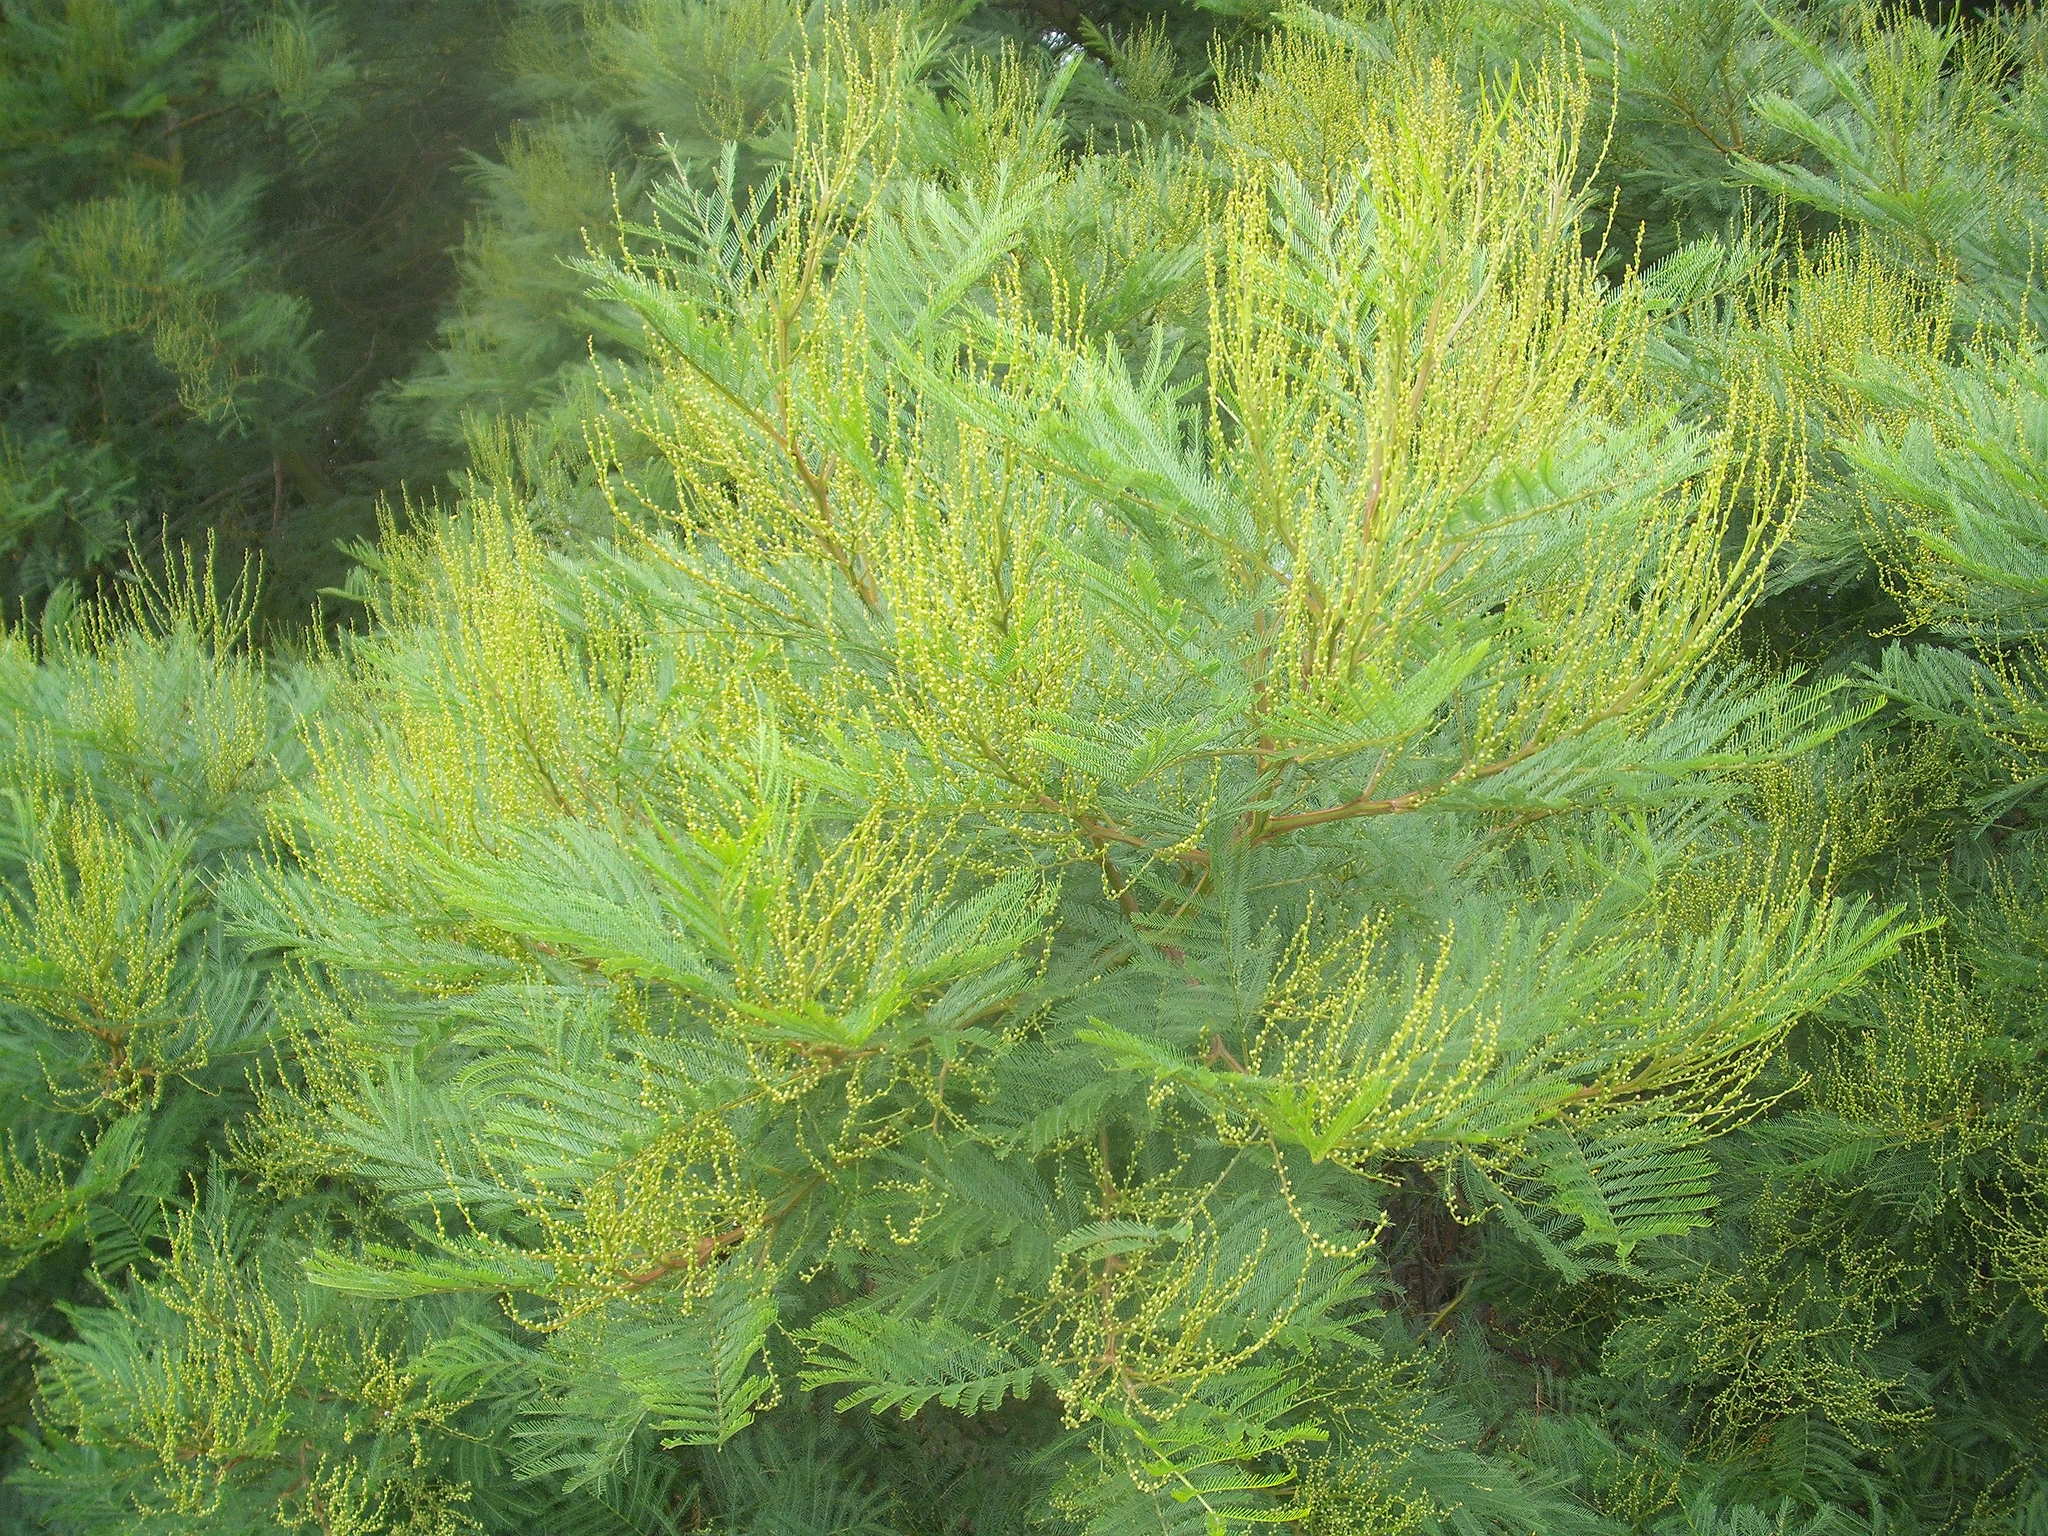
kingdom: Plantae
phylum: Tracheophyta
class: Magnoliopsida
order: Fabales
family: Fabaceae
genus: Acacia
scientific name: Acacia decurrens
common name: Green wattle
